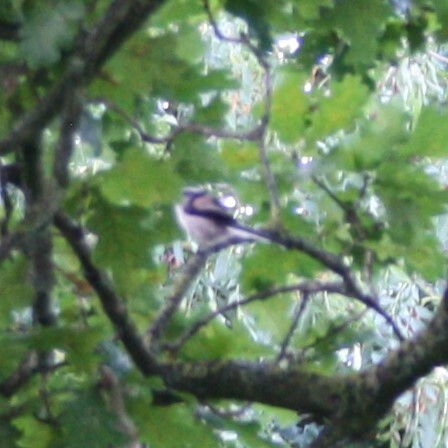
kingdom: Animalia
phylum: Chordata
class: Aves
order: Passeriformes
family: Aegithalidae
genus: Aegithalos
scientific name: Aegithalos caudatus
